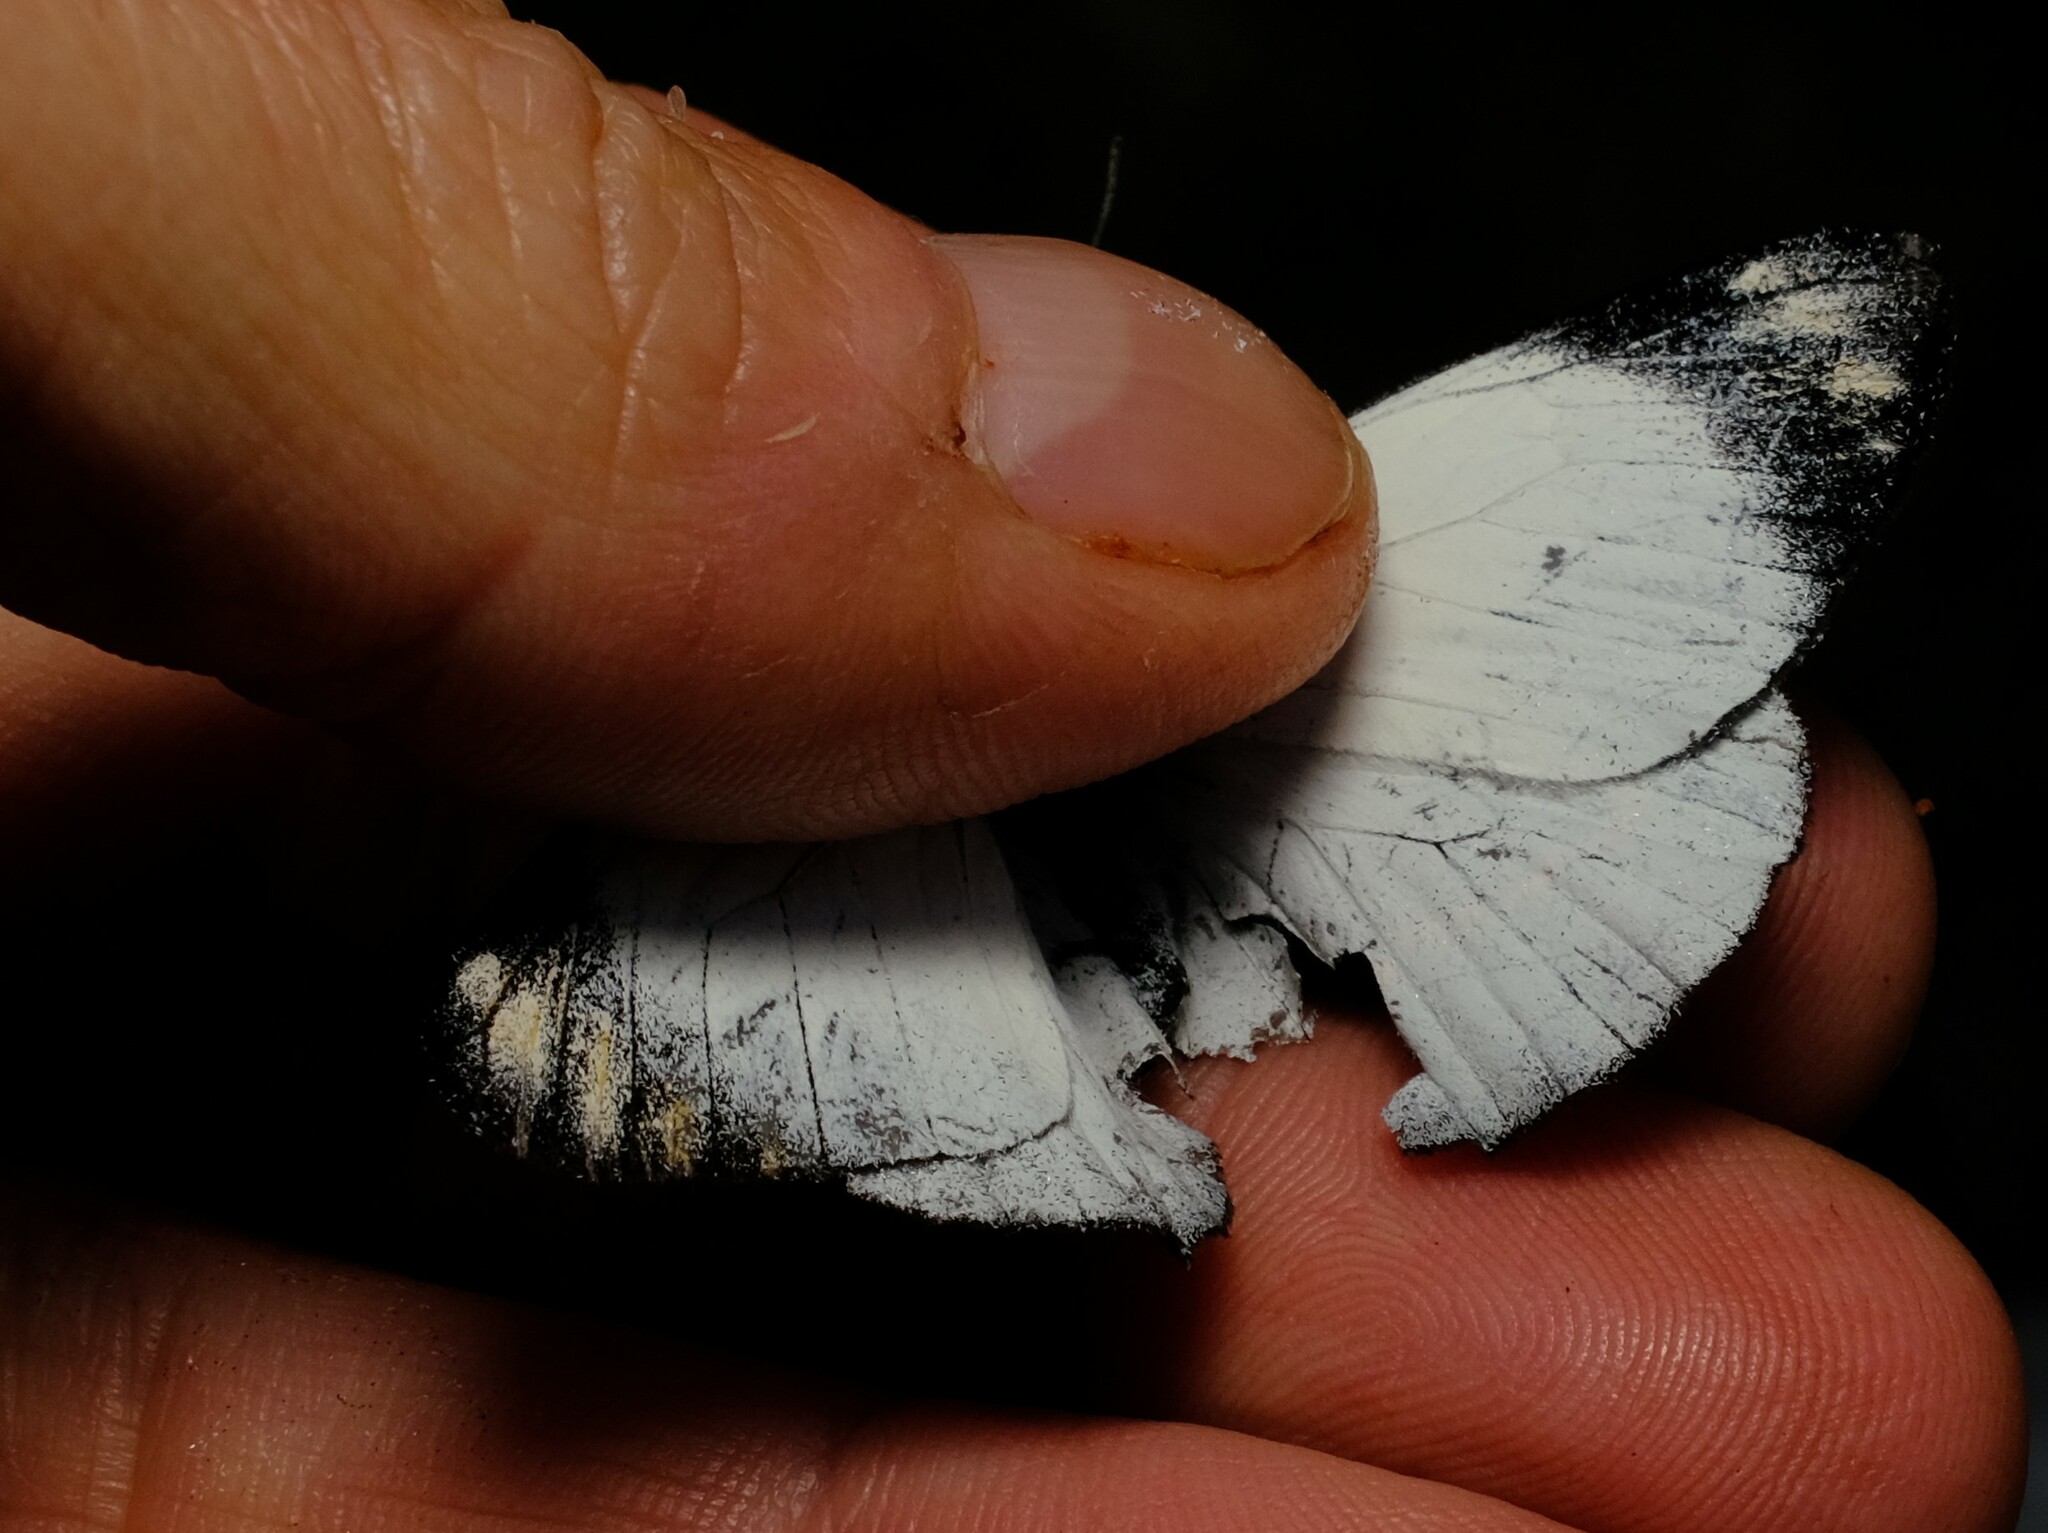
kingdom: Animalia
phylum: Arthropoda
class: Insecta
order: Lepidoptera
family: Pieridae
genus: Delias
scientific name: Delias nigrina
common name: Black jezebel
